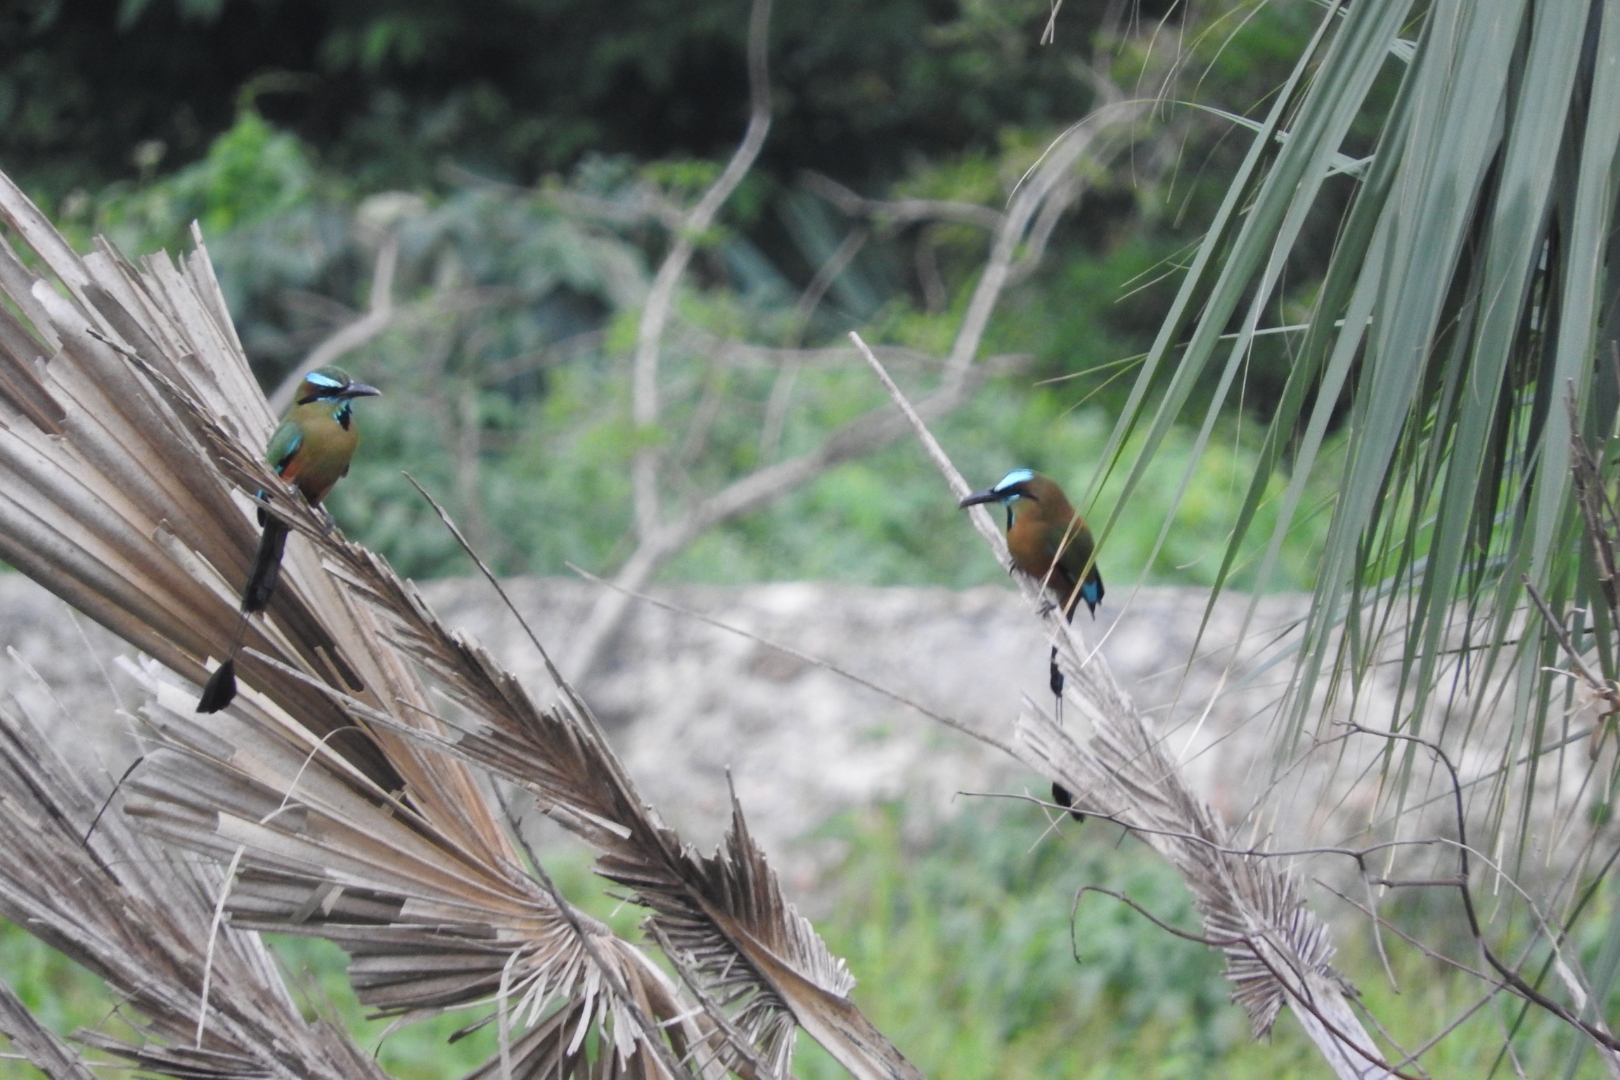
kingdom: Animalia
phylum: Chordata
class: Aves
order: Coraciiformes
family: Momotidae
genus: Eumomota
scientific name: Eumomota superciliosa
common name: Turquoise-browed motmot
